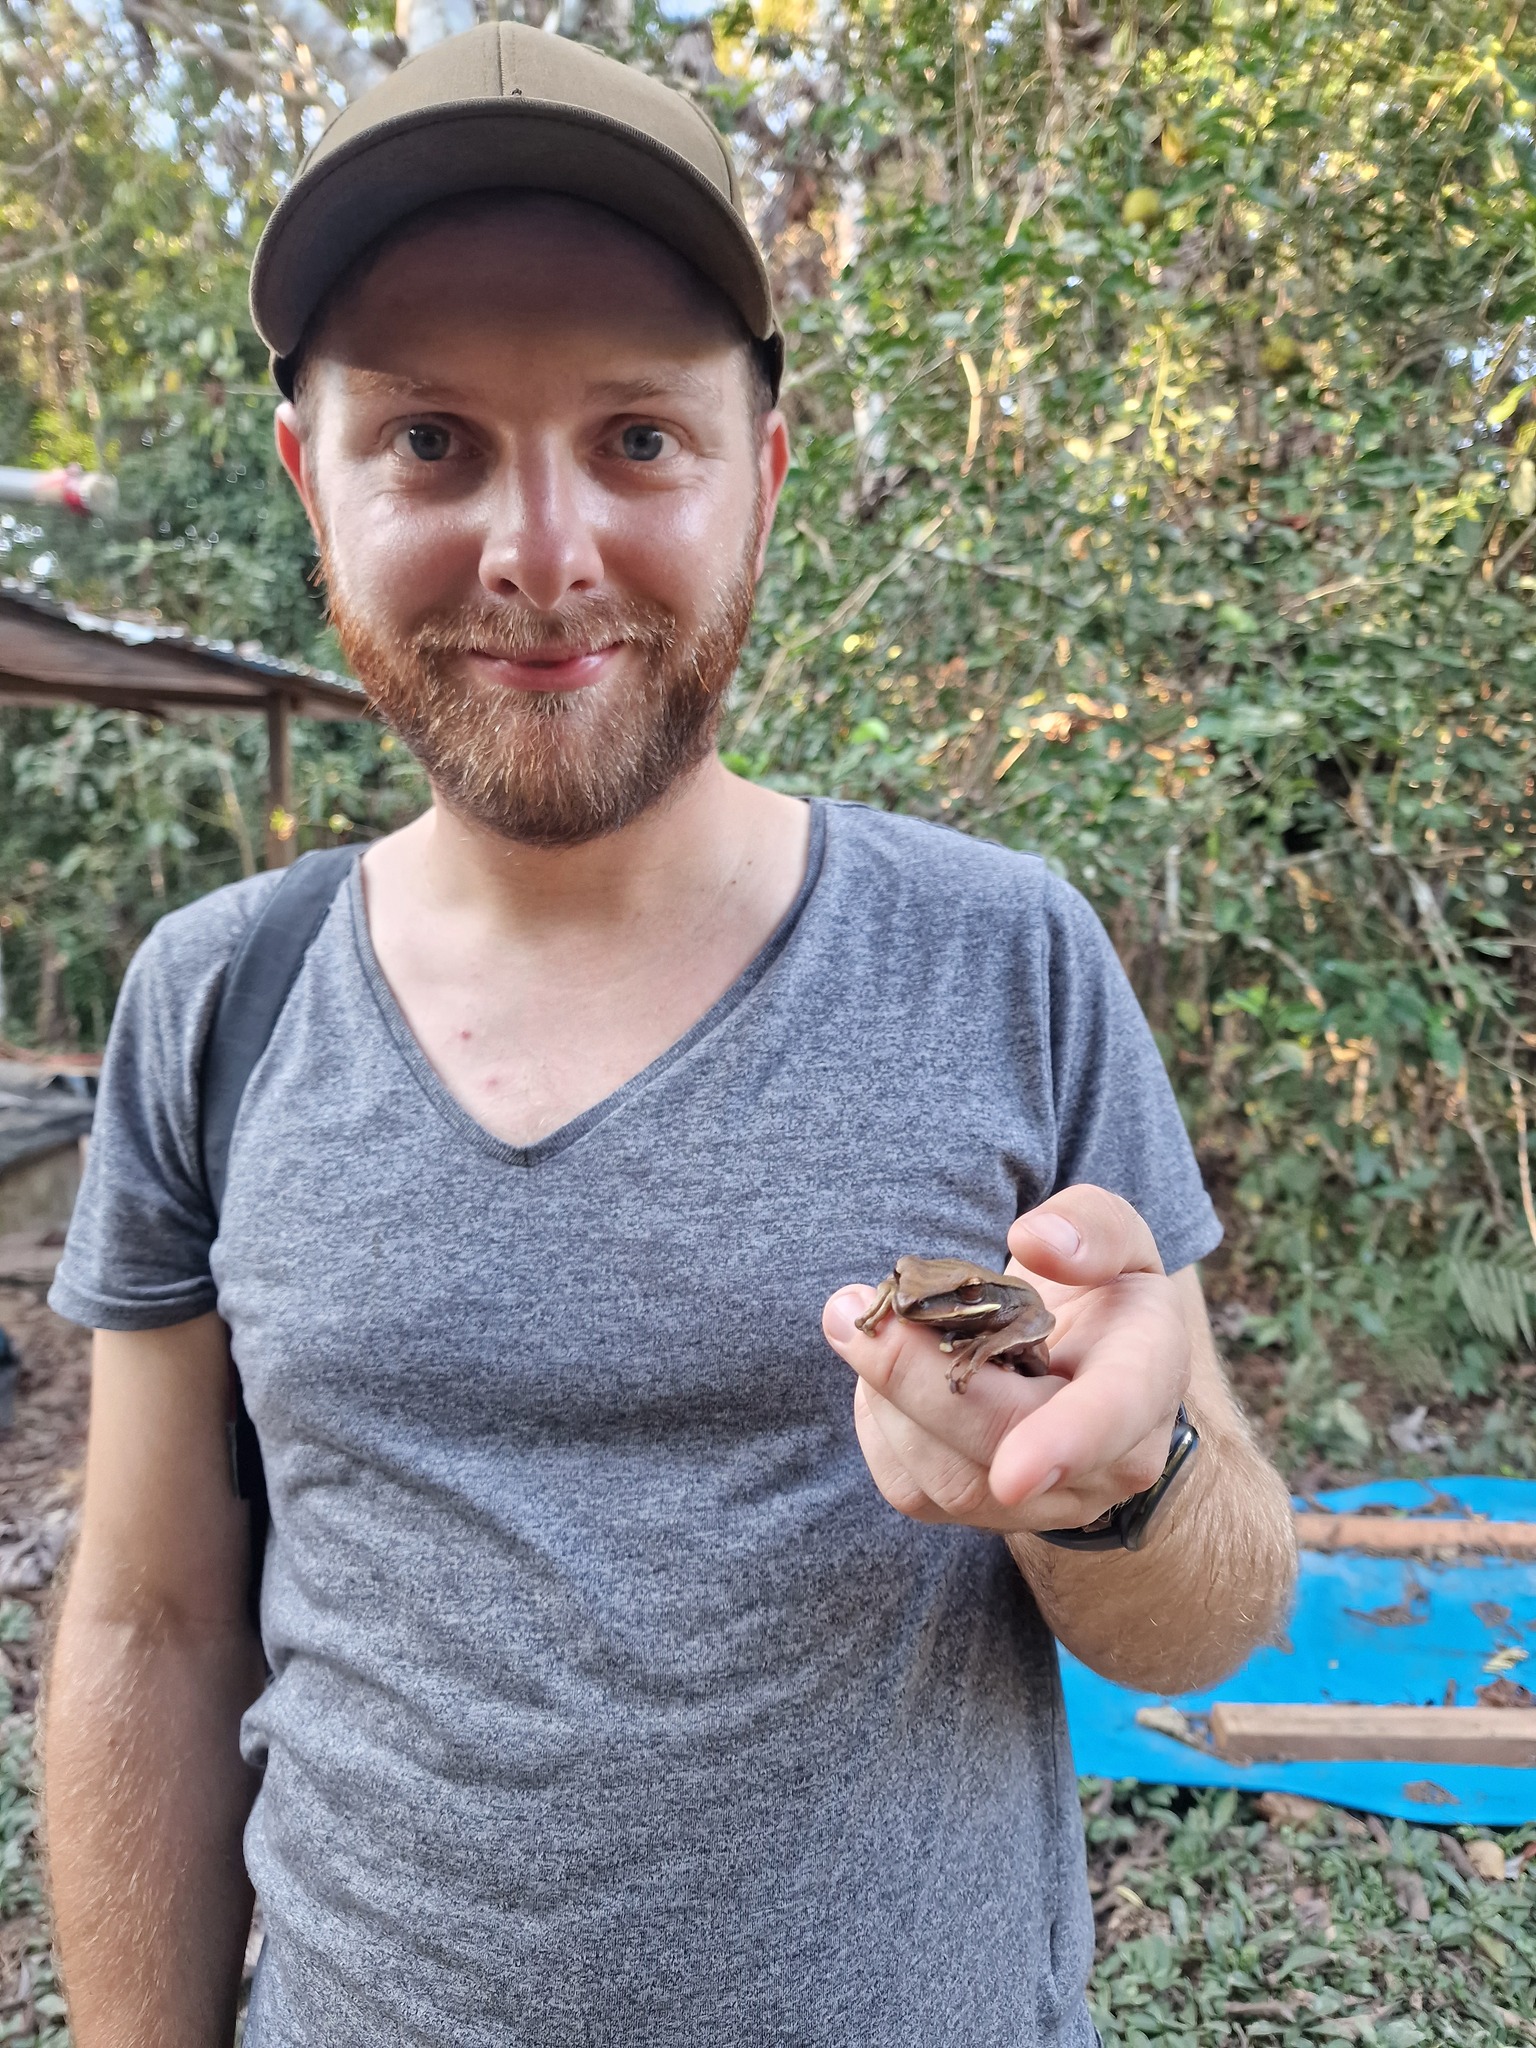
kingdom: Animalia
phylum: Chordata
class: Amphibia
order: Anura
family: Hylidae
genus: Boana
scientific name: Boana lanciformis
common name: Rana lanceolada commún
